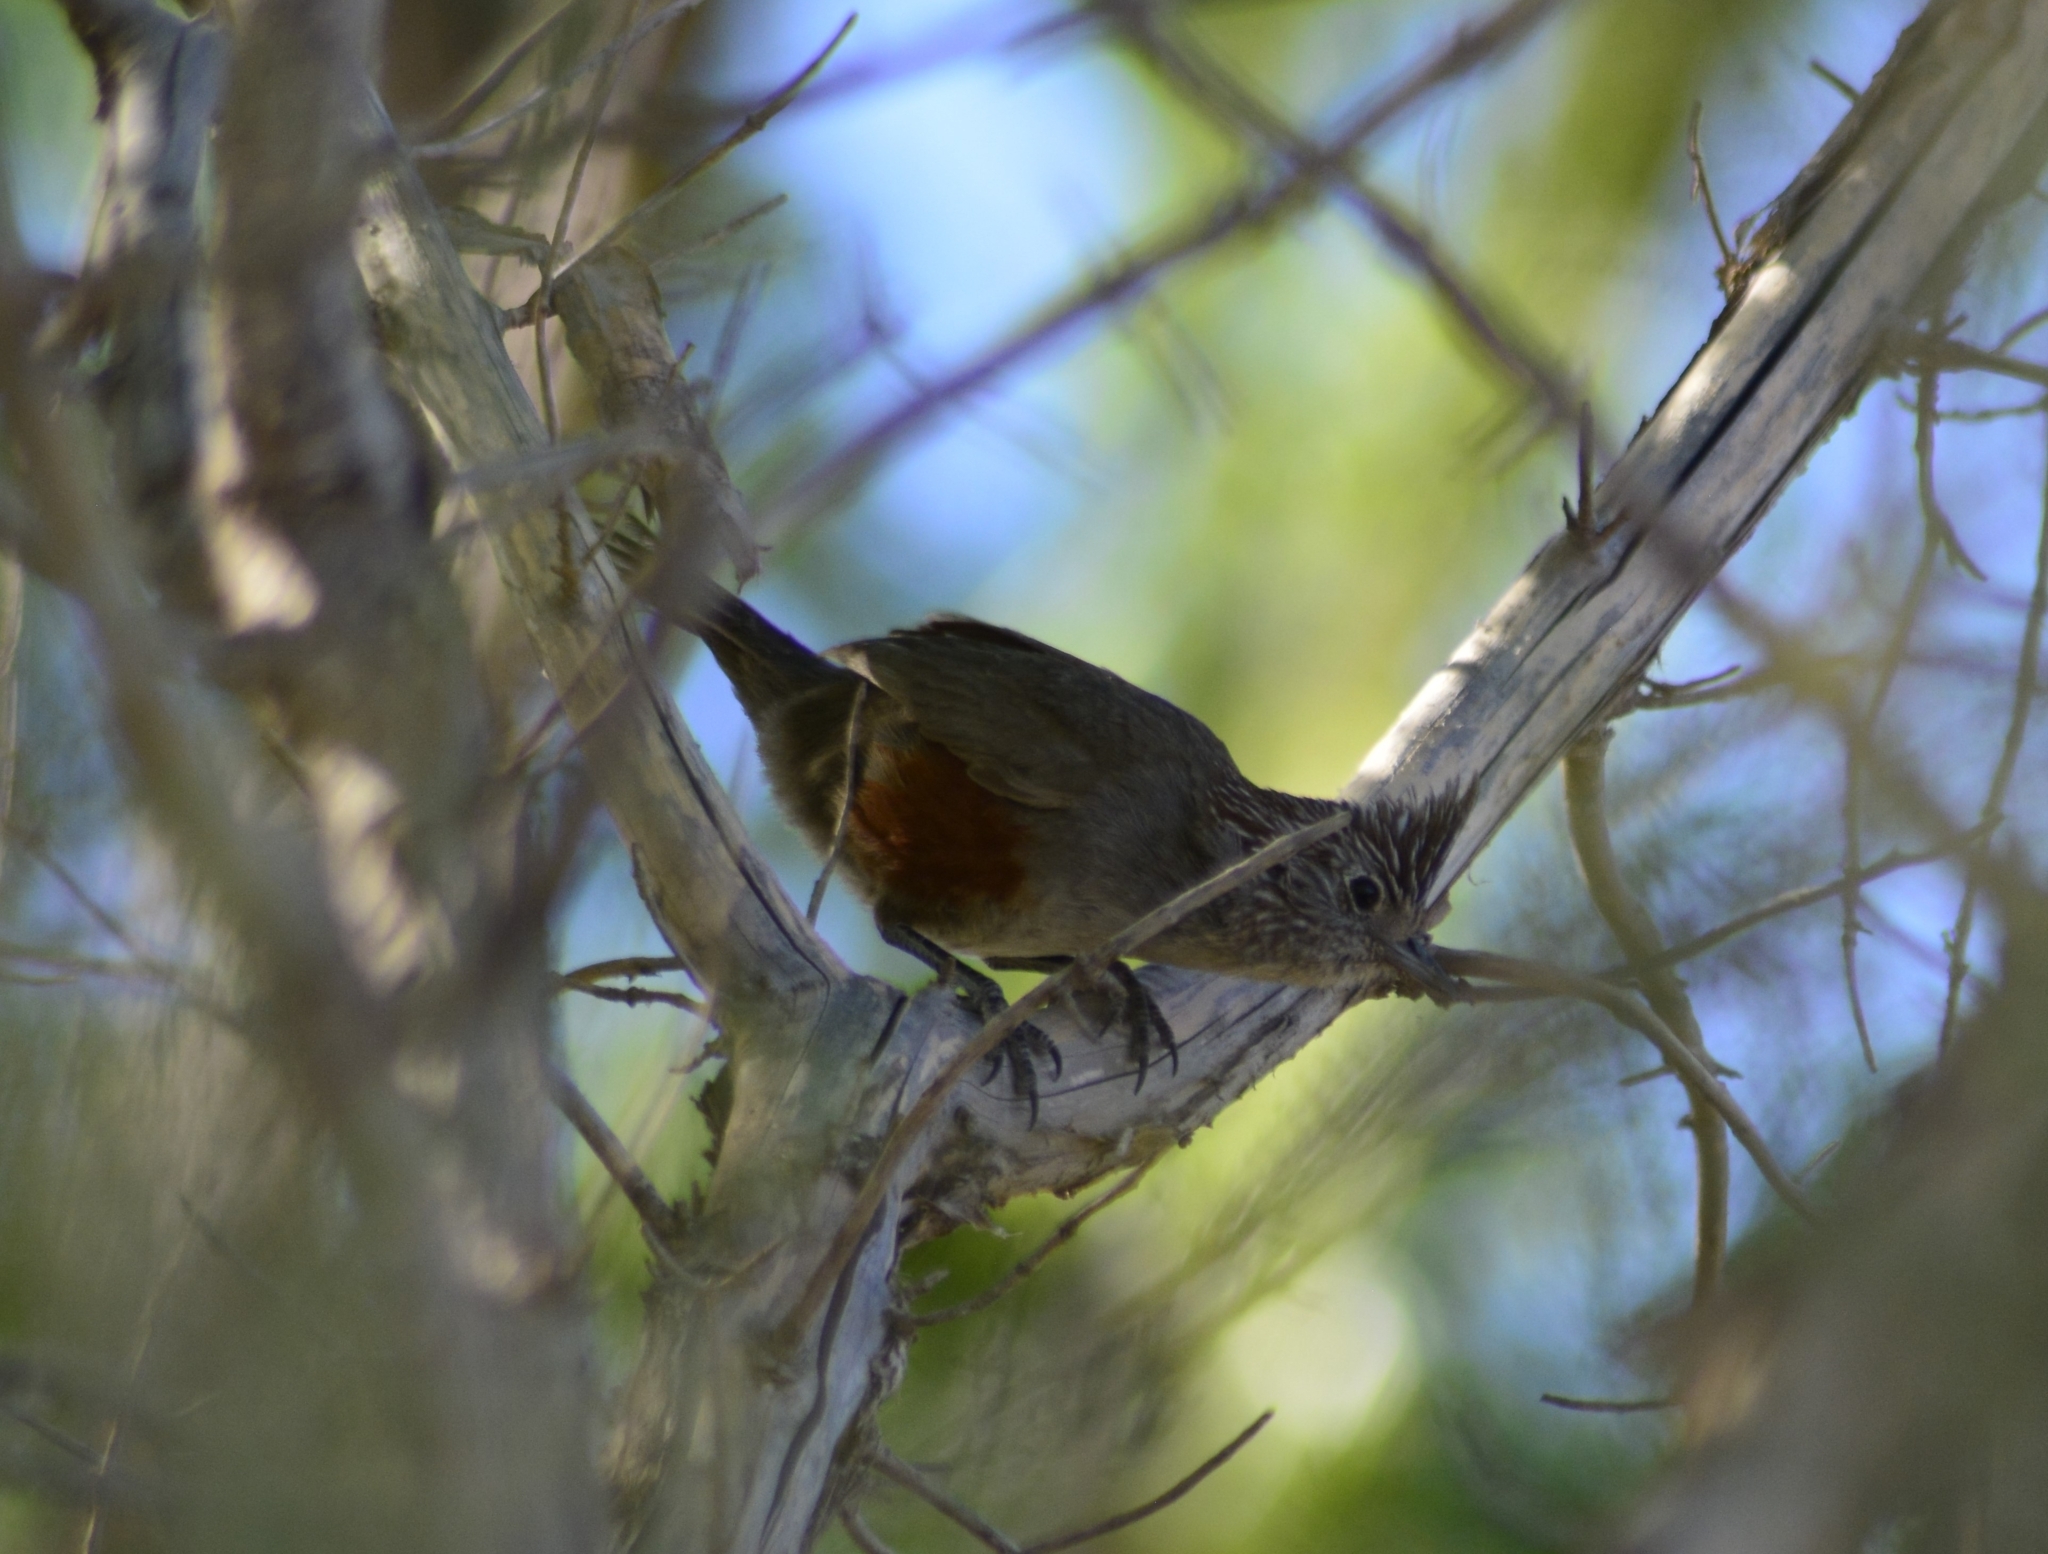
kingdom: Animalia
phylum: Chordata
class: Aves
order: Passeriformes
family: Rhinocryptidae
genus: Rhinocrypta
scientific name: Rhinocrypta lanceolata
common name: Crested gallito
